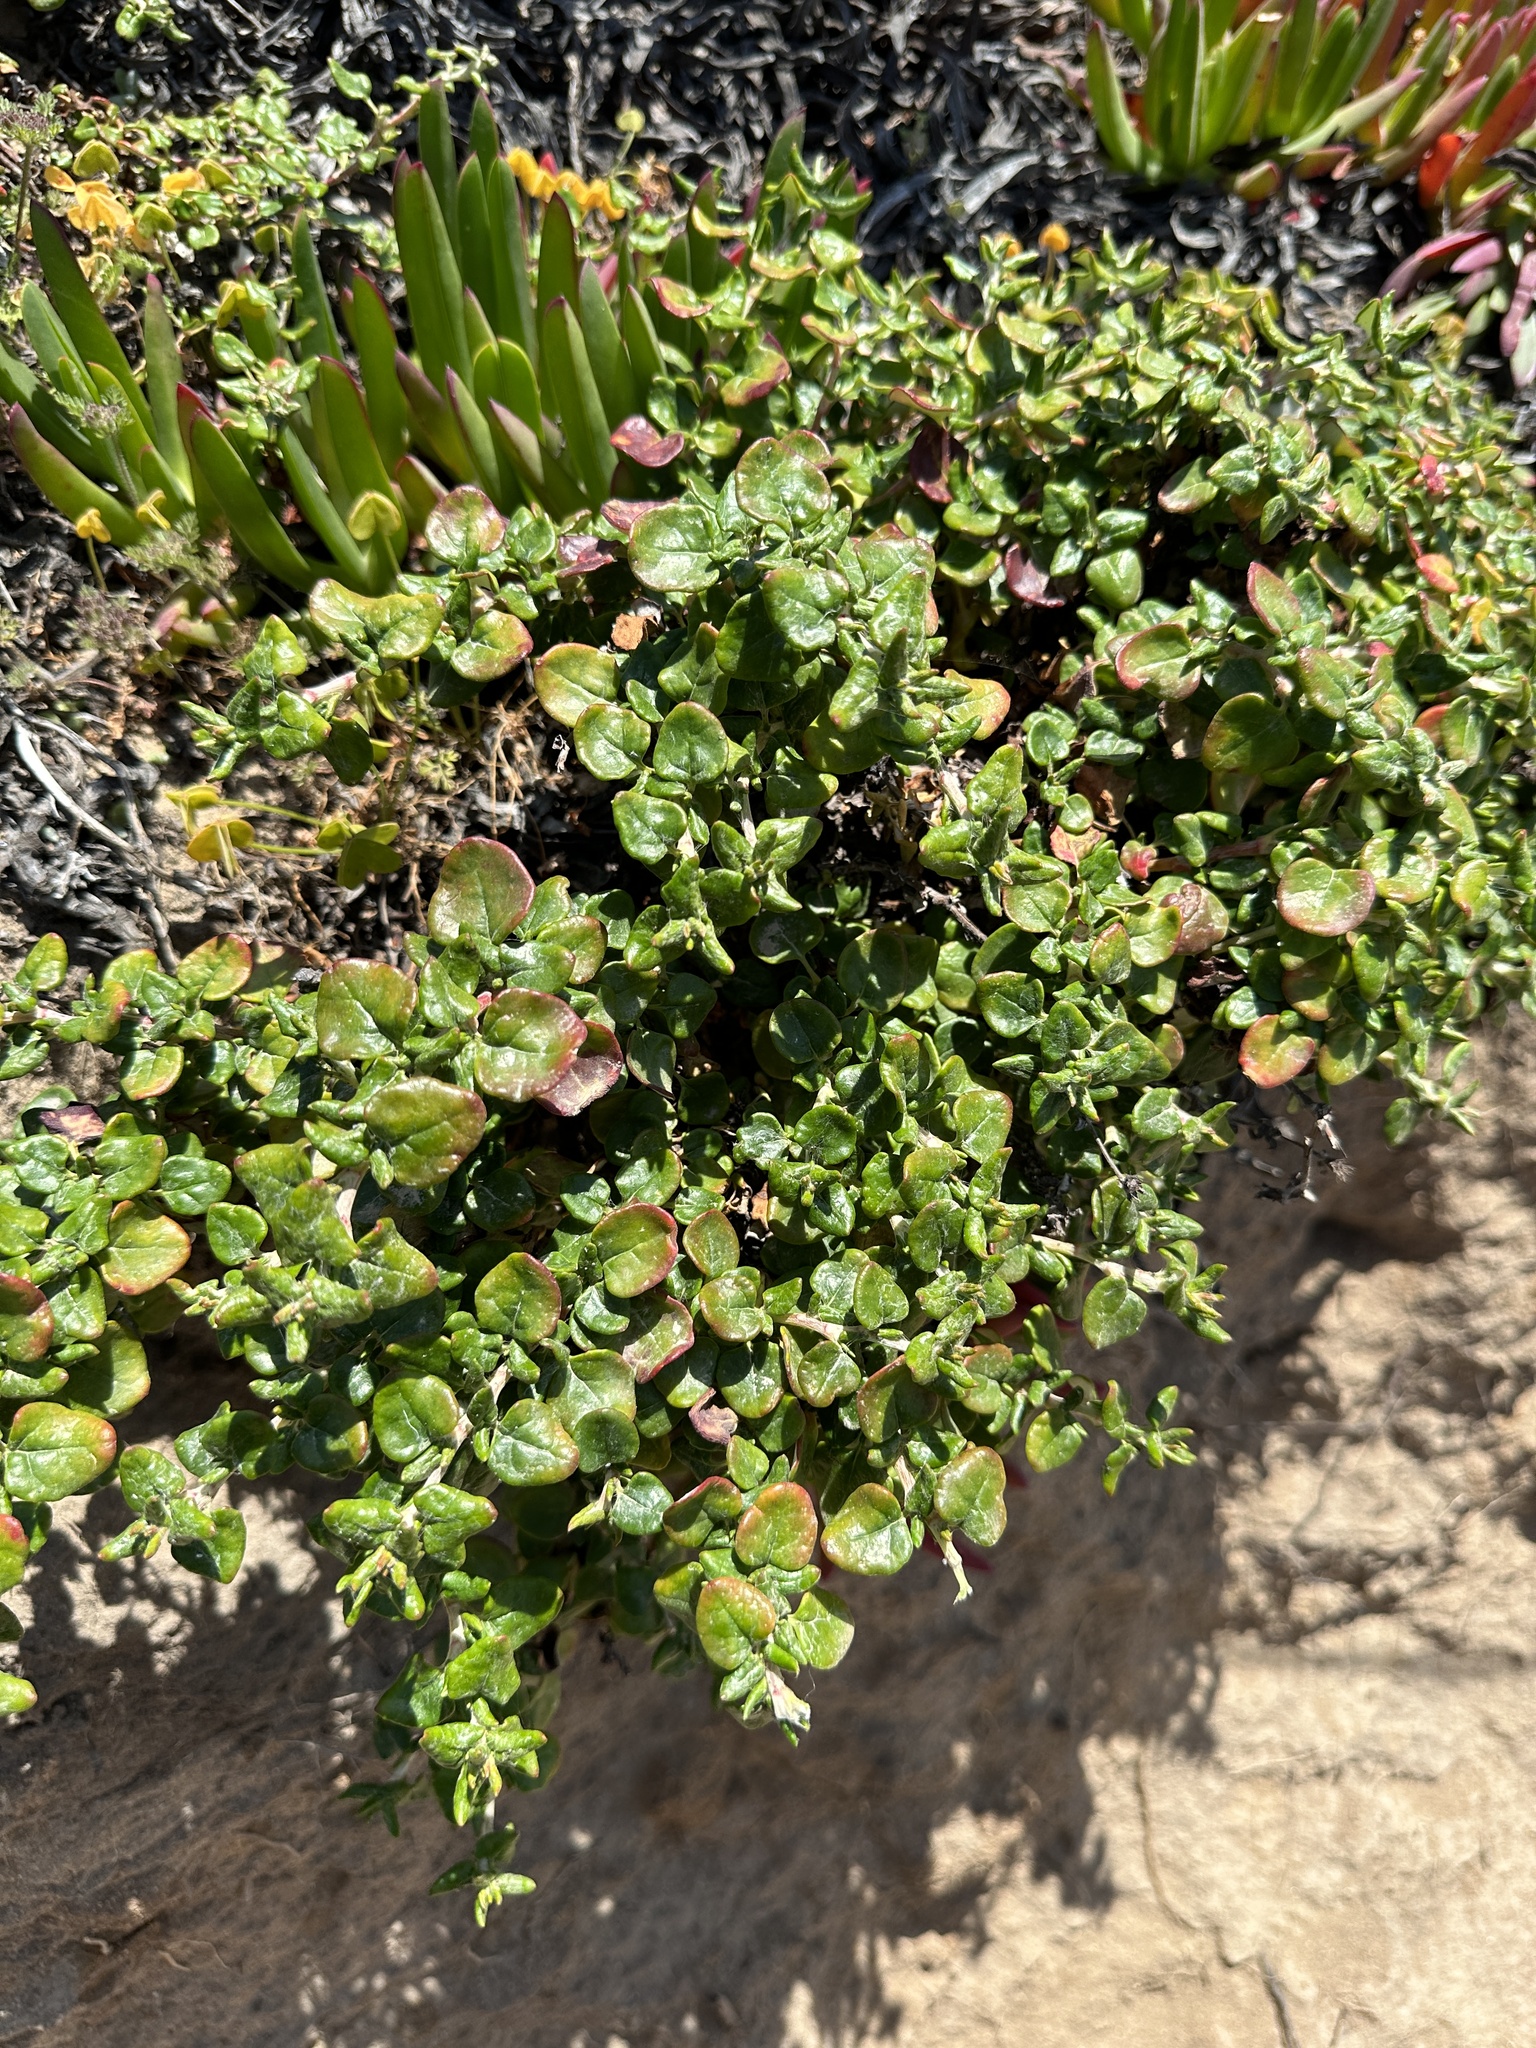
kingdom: Plantae
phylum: Tracheophyta
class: Magnoliopsida
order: Caryophyllales
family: Polygonaceae
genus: Eriogonum
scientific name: Eriogonum parvifolium
